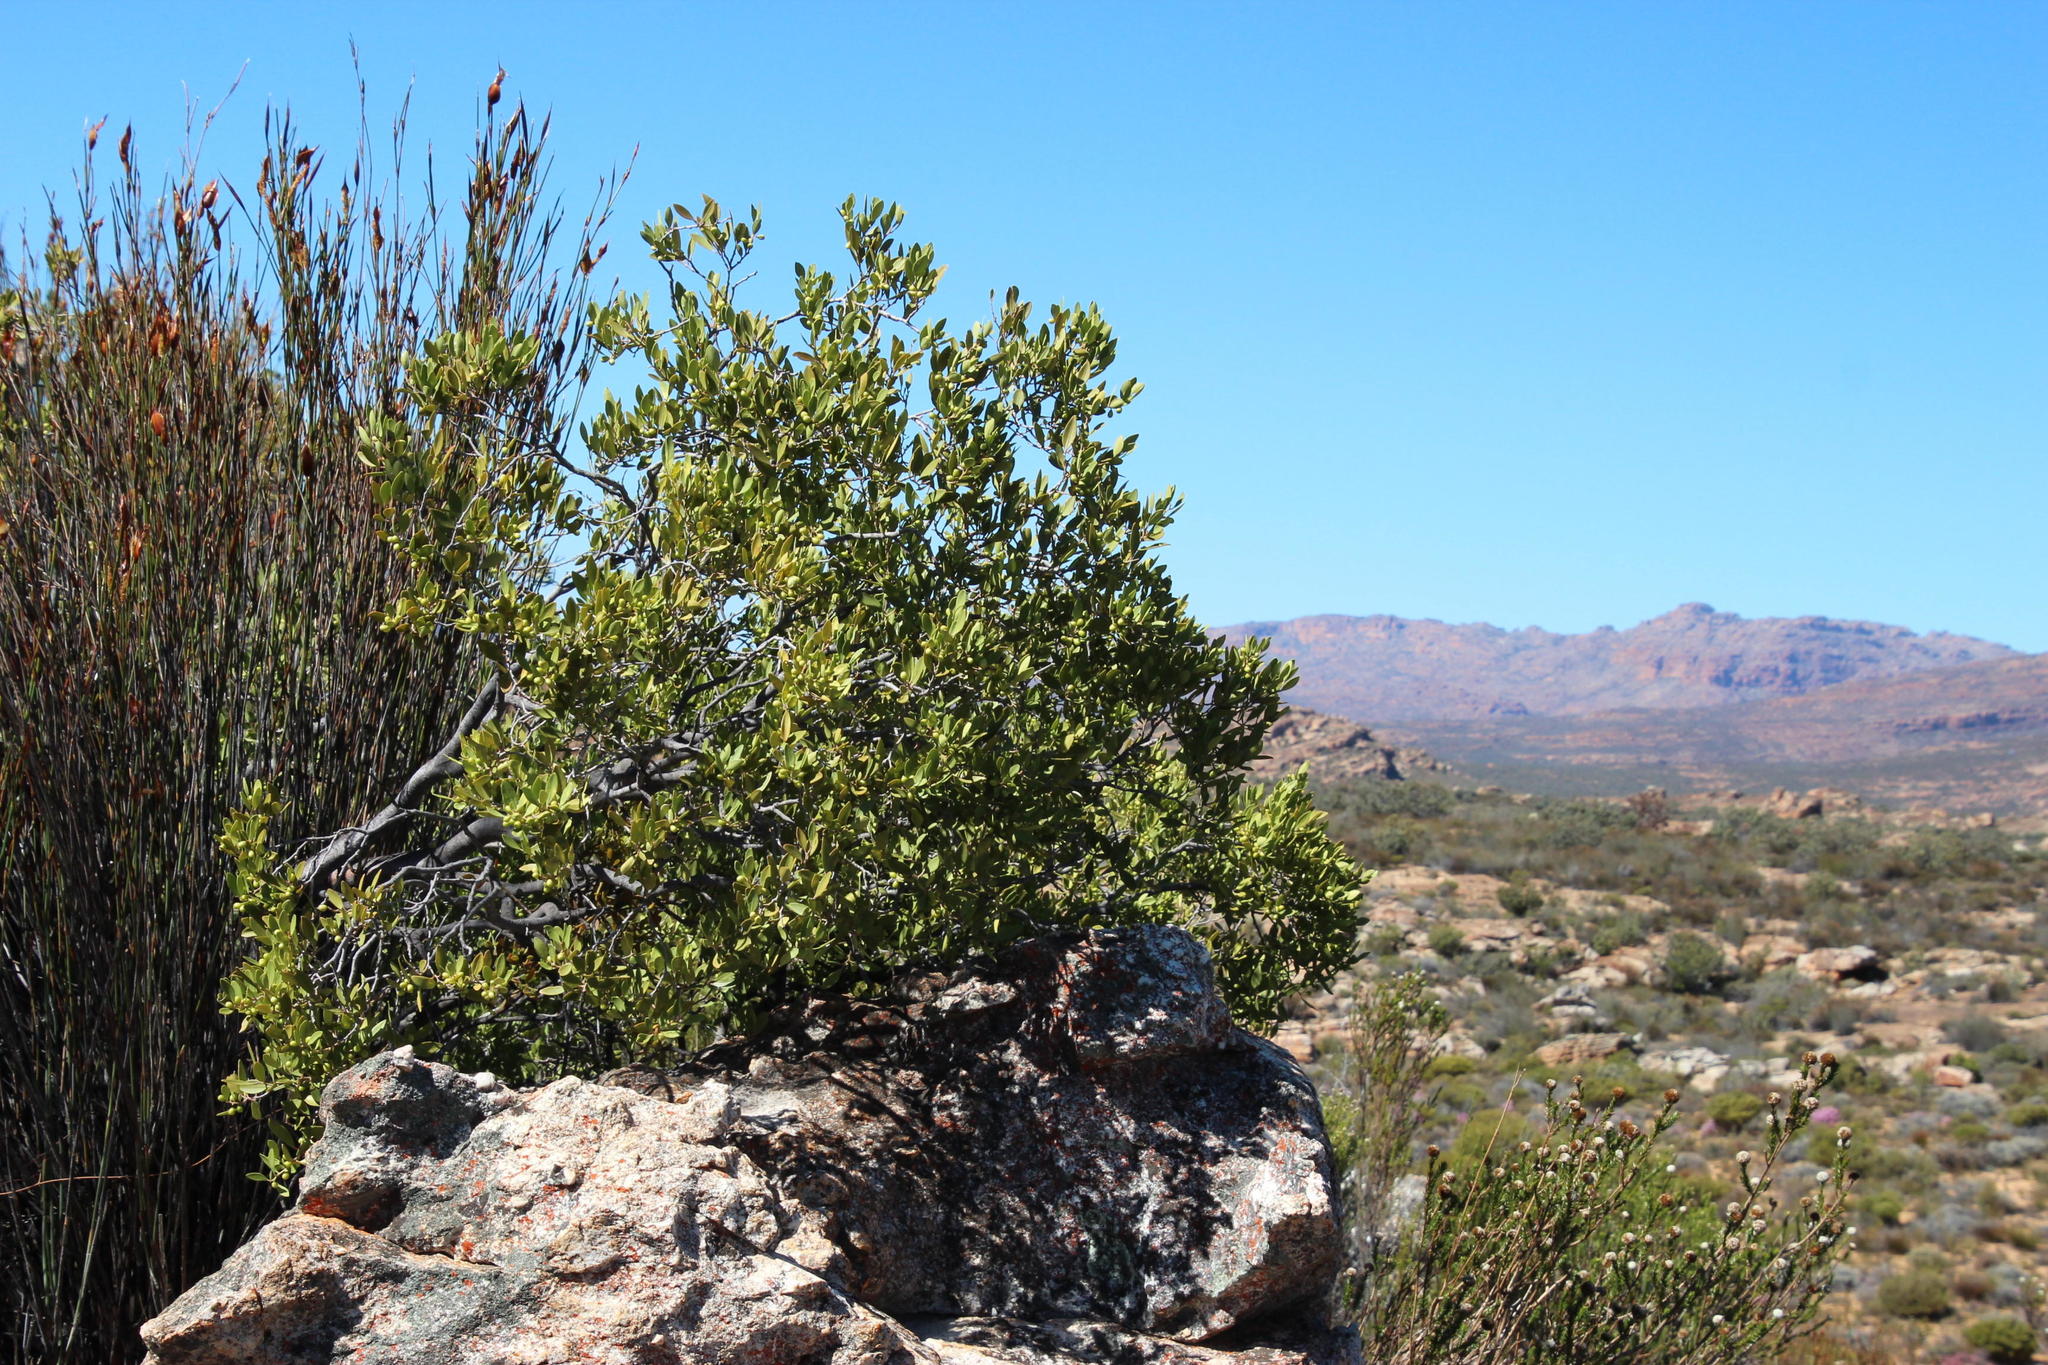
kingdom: Plantae
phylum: Tracheophyta
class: Magnoliopsida
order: Celastrales
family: Celastraceae
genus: Gymnosporia
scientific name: Gymnosporia laurina
